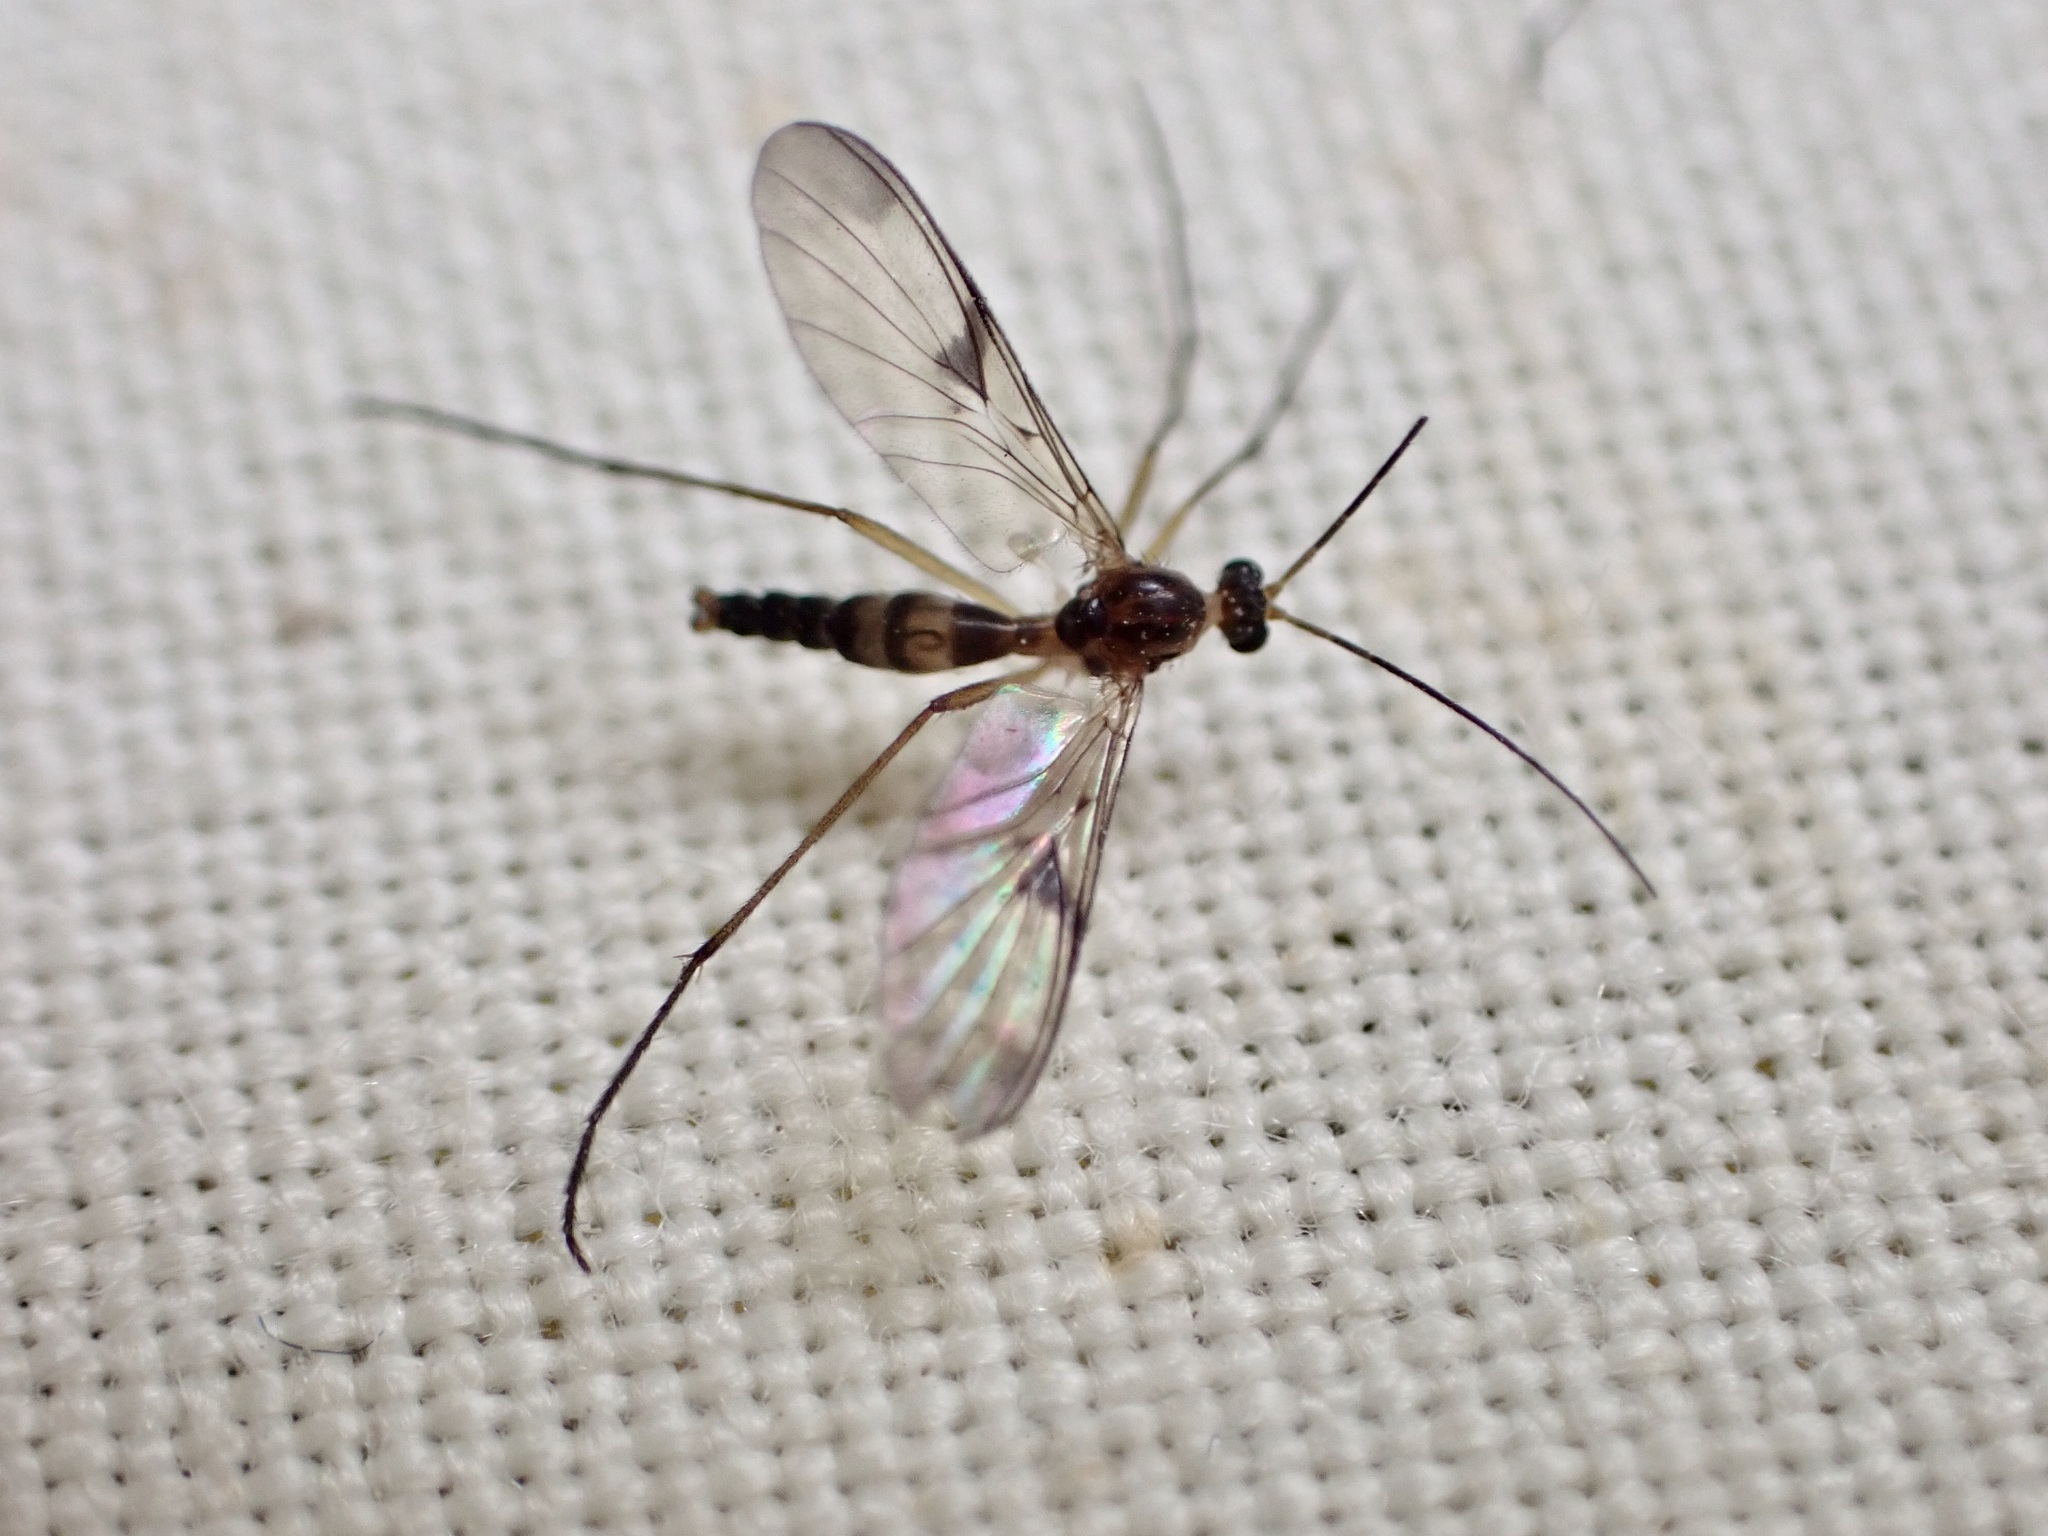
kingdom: Animalia
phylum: Arthropoda
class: Insecta
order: Diptera
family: Keroplatidae
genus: Macrocera
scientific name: Macrocera scoparia
